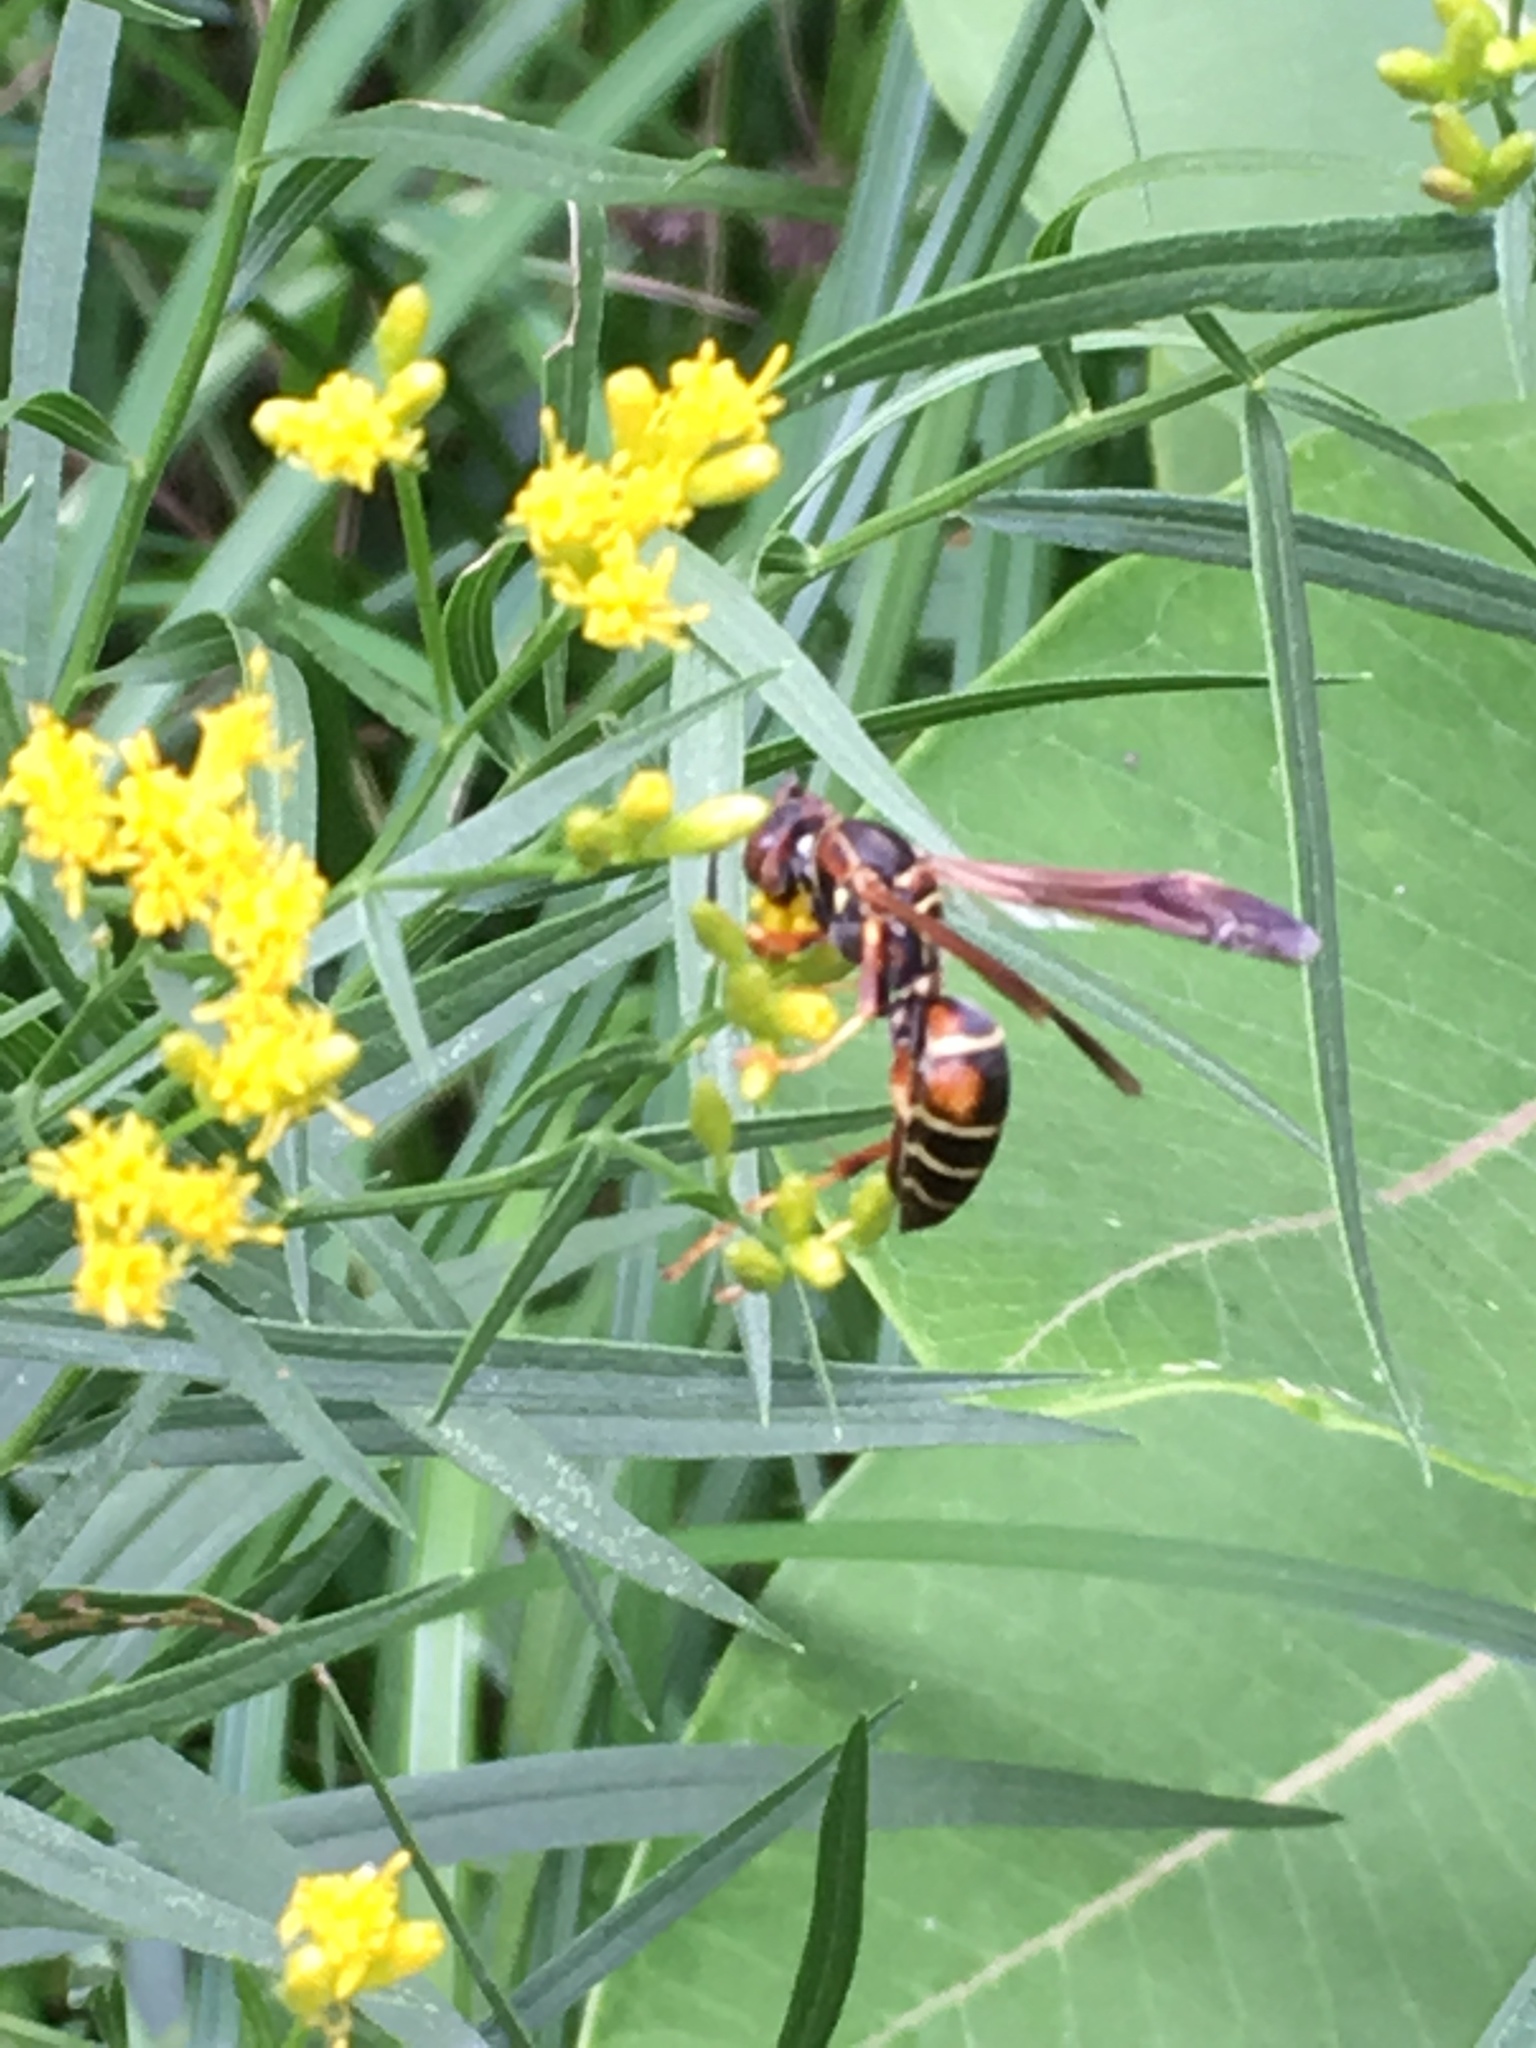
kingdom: Animalia
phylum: Arthropoda
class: Insecta
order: Hymenoptera
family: Eumenidae
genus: Polistes
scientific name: Polistes fuscatus
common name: Dark paper wasp
